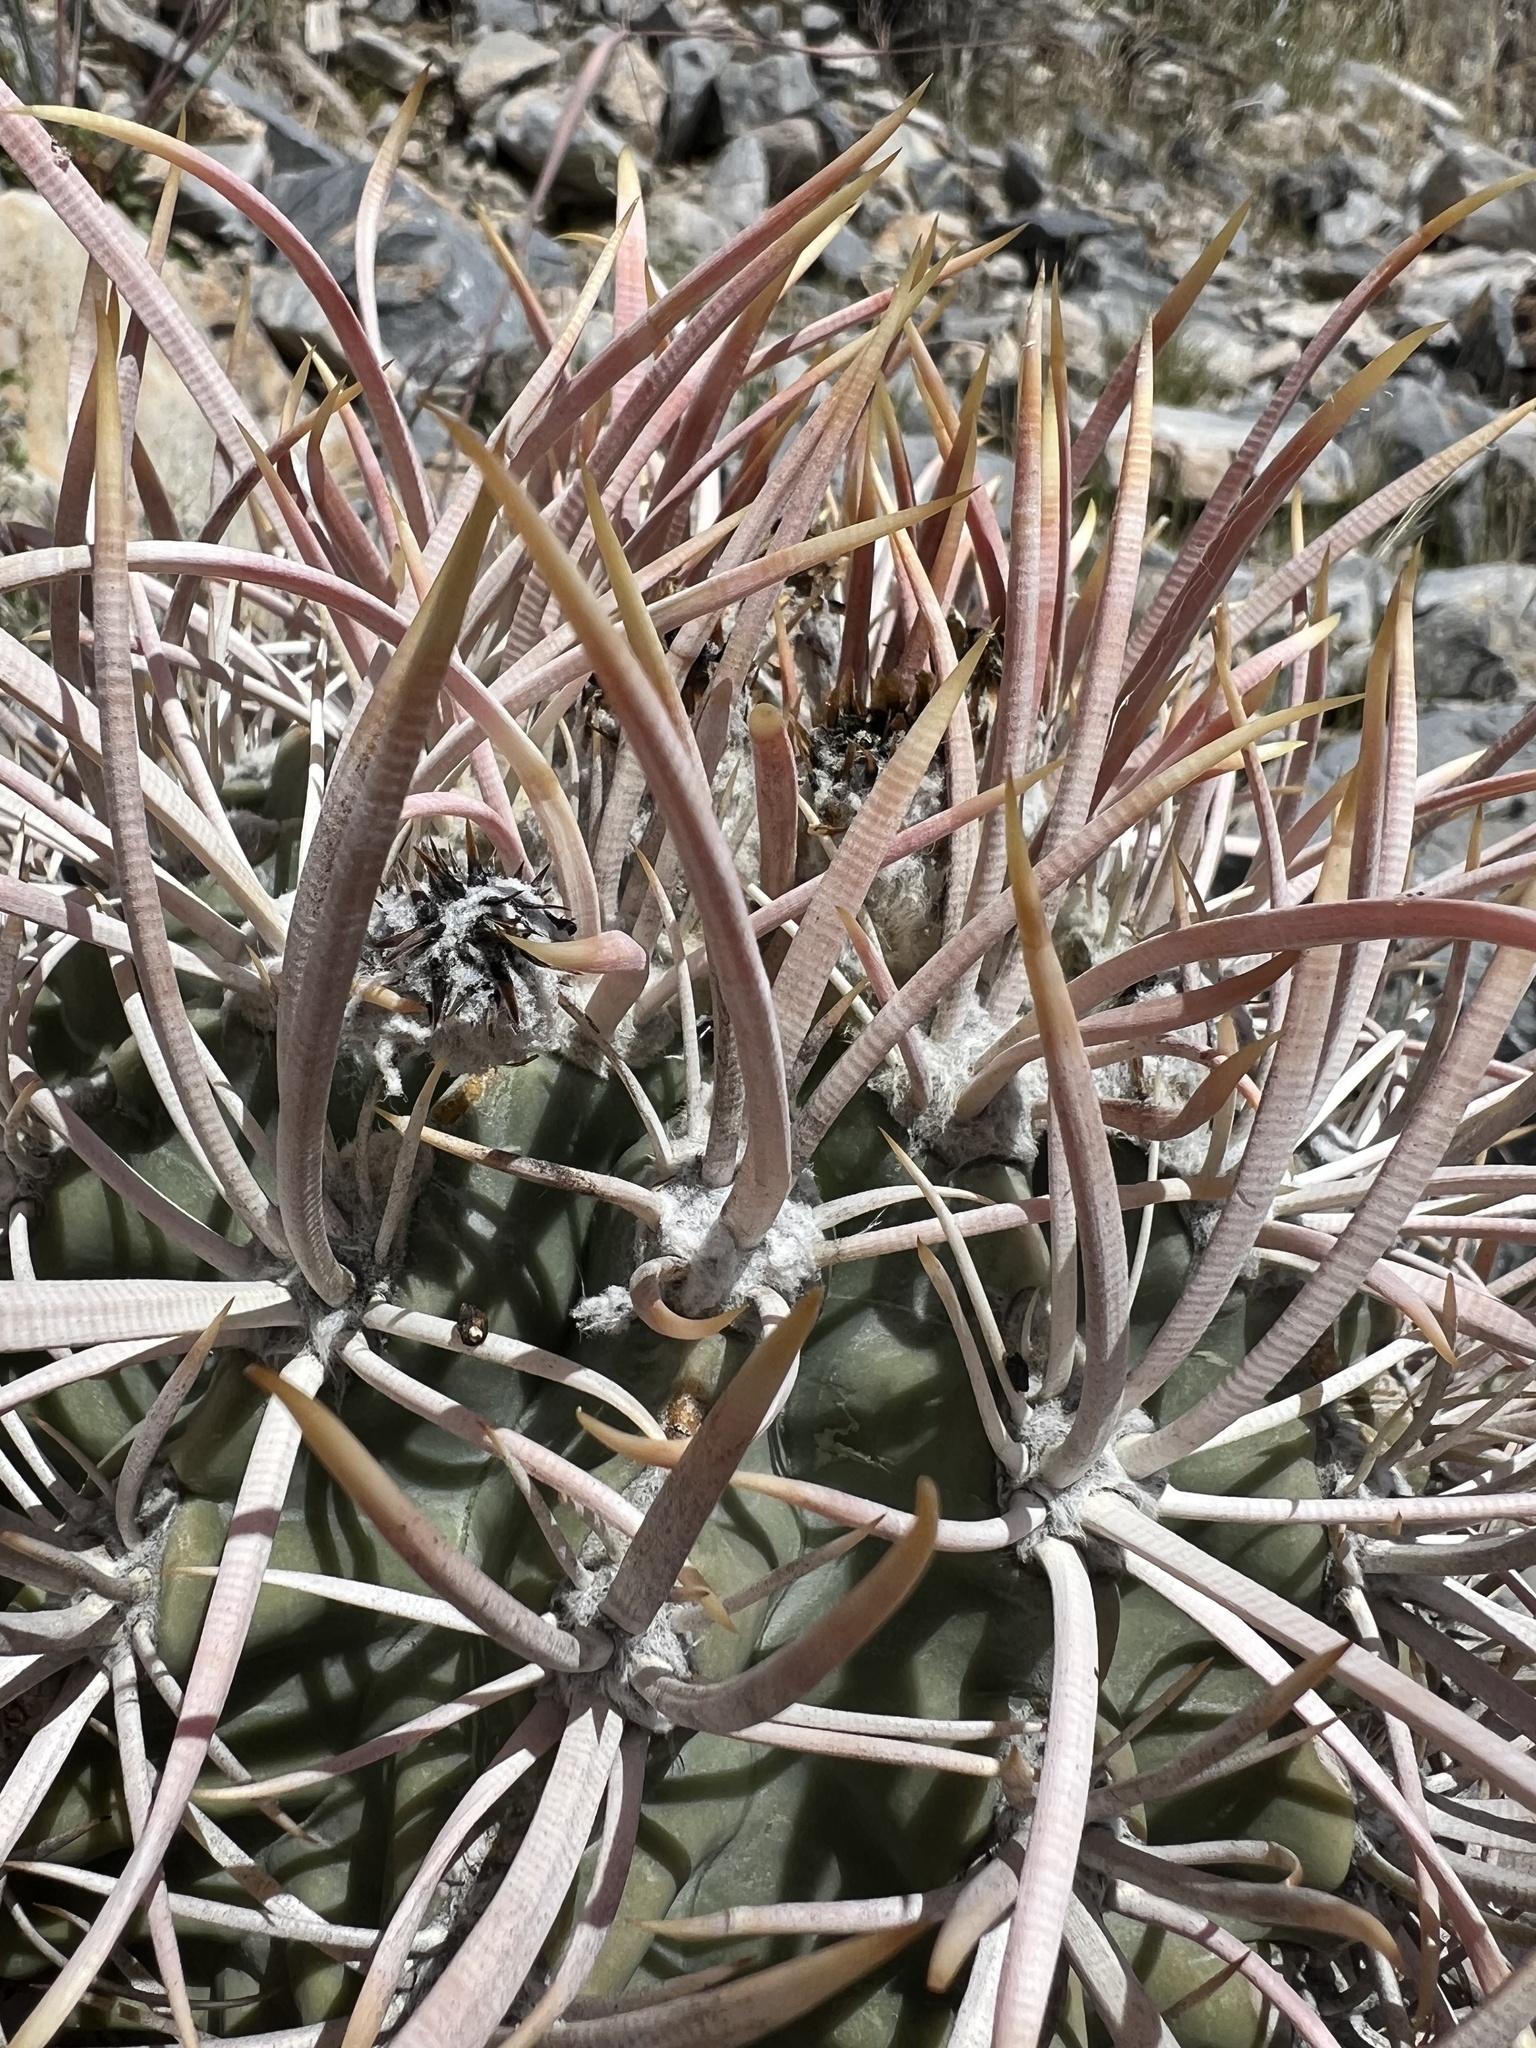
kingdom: Plantae
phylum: Tracheophyta
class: Magnoliopsida
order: Caryophyllales
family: Cactaceae
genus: Echinocactus
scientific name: Echinocactus polycephalus
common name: Cottontop cactus
